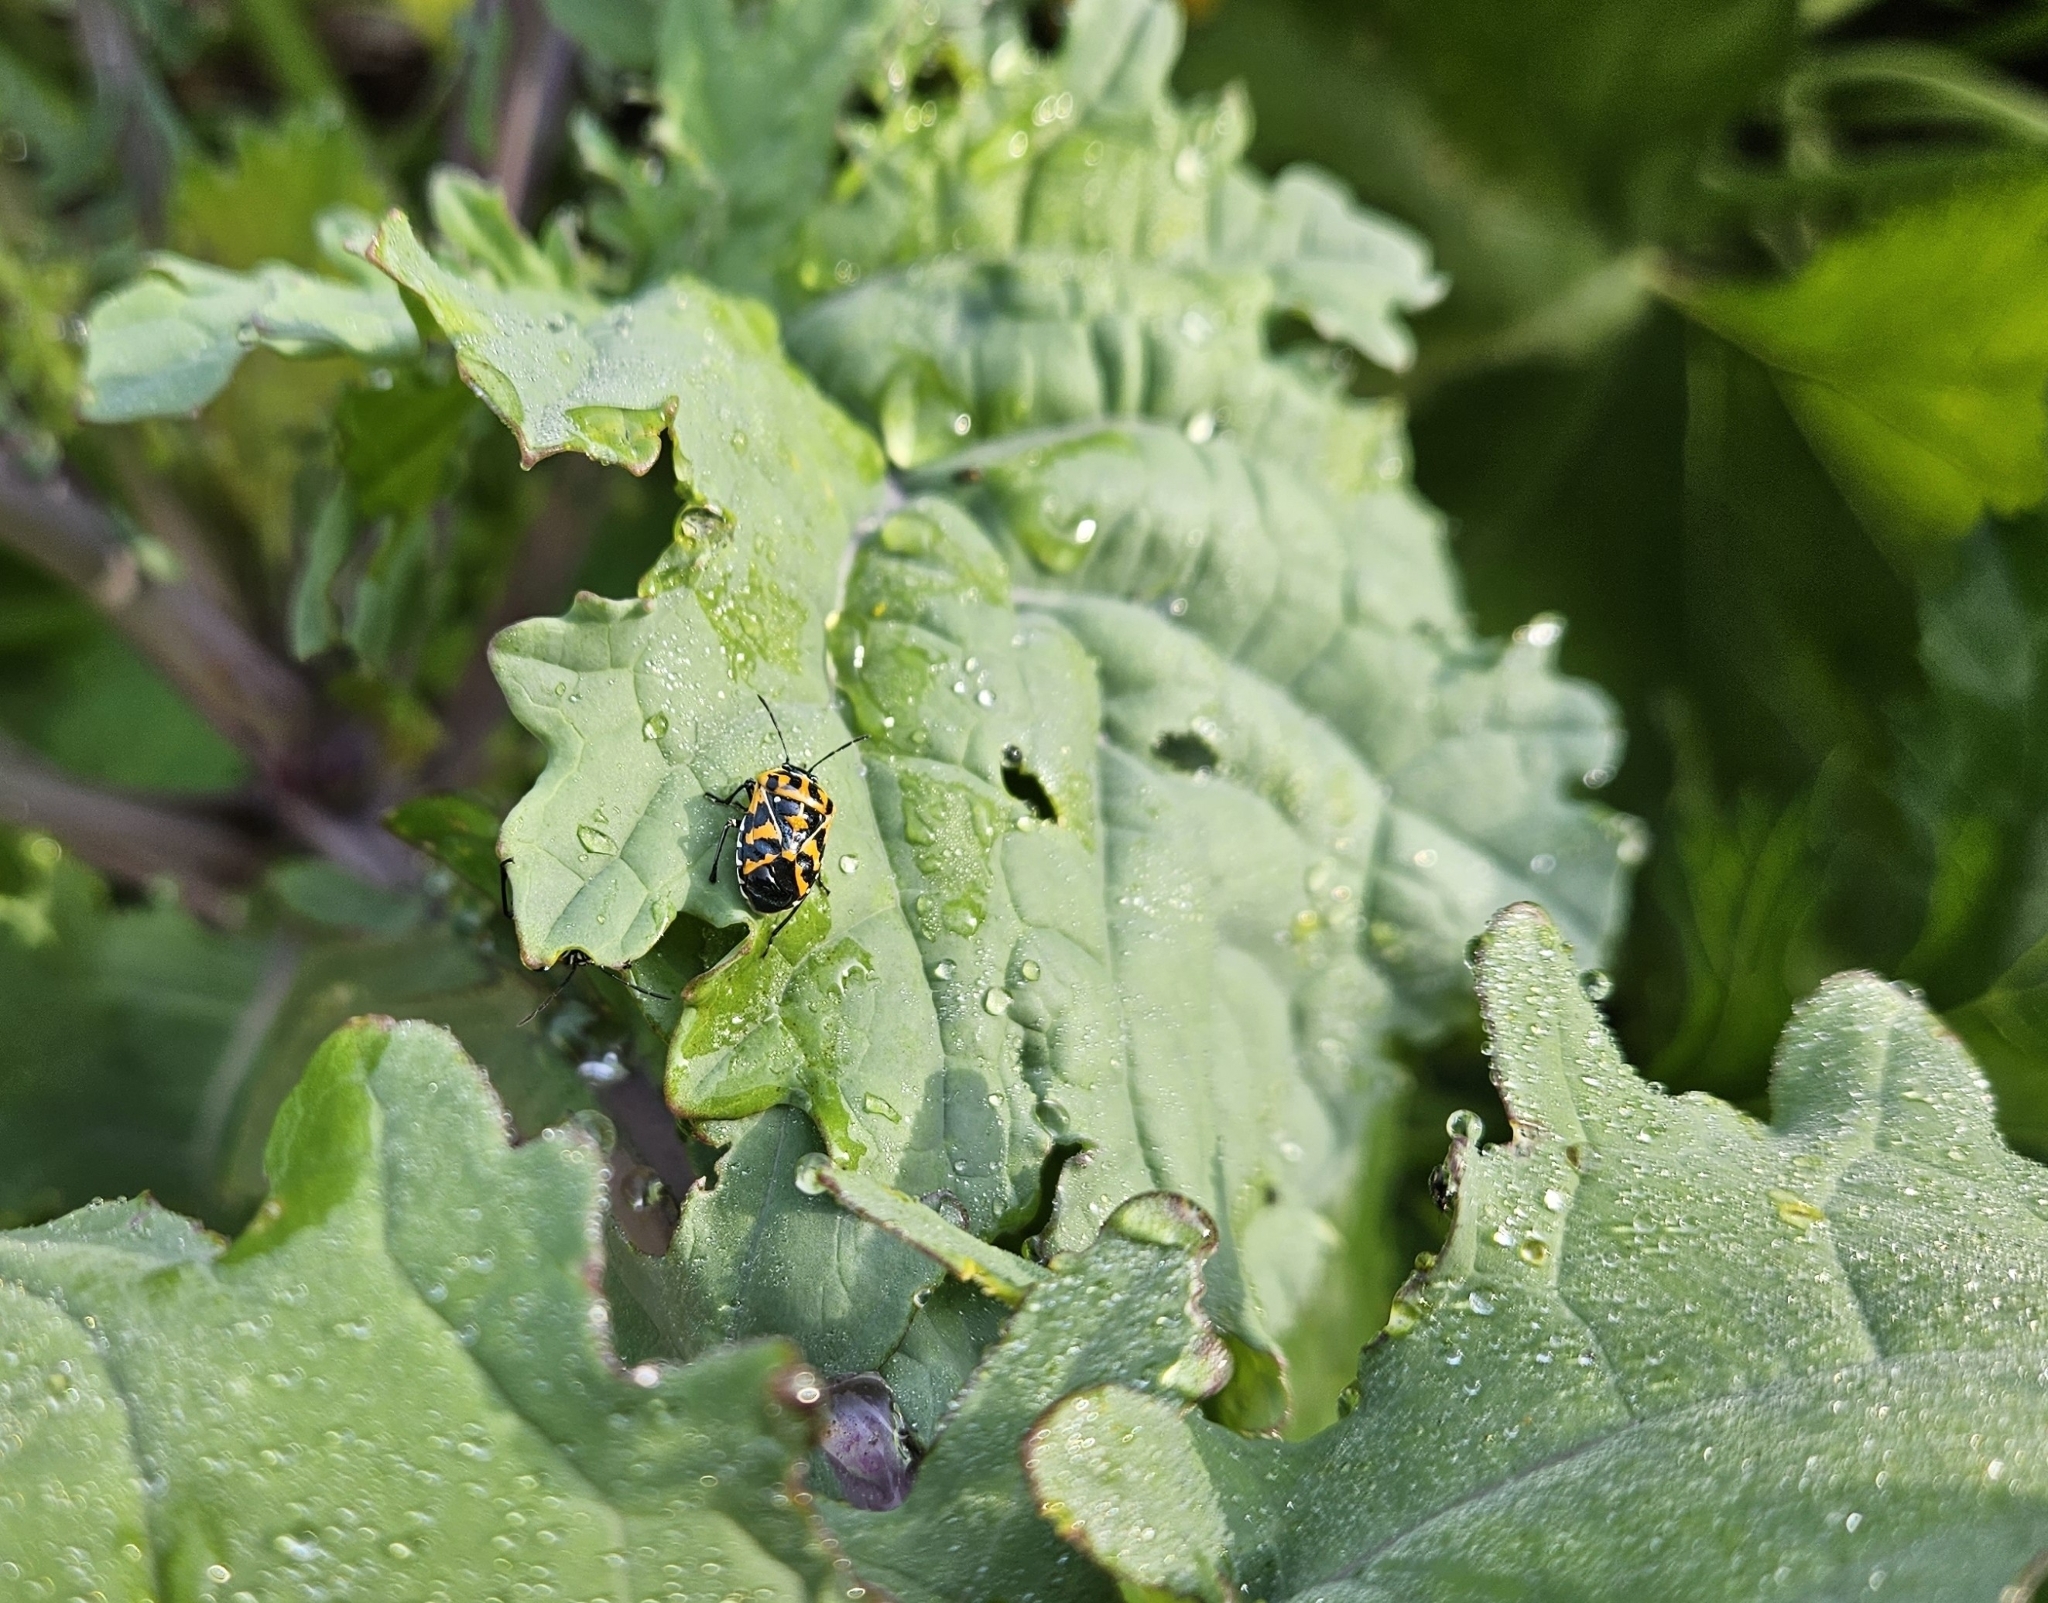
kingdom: Animalia
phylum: Arthropoda
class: Insecta
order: Hemiptera
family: Pentatomidae
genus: Murgantia
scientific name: Murgantia histrionica
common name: Harlequin bug
